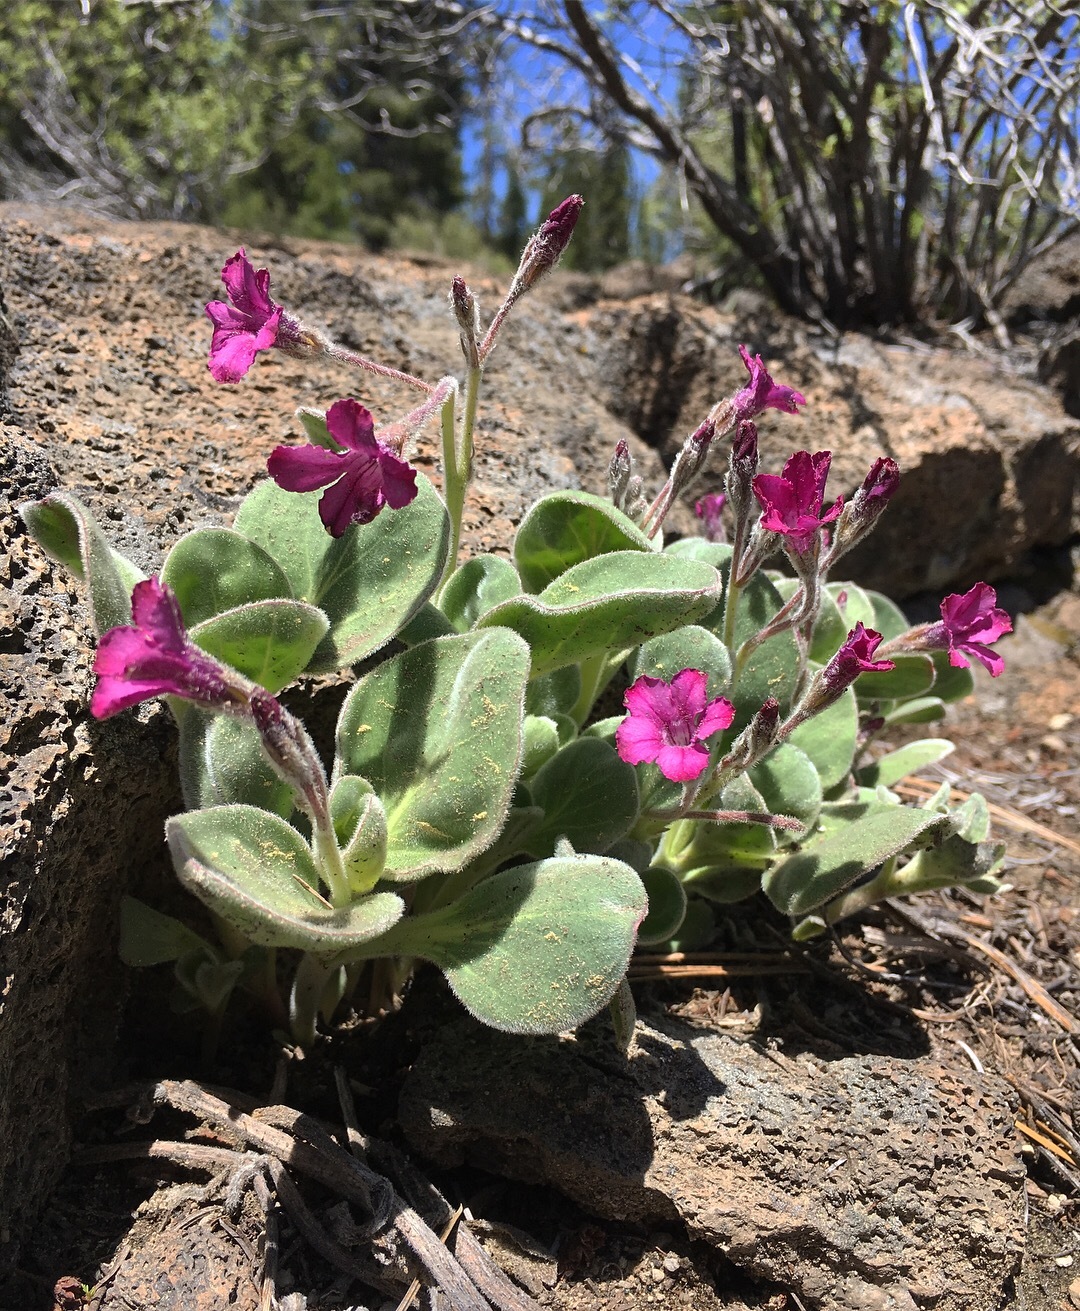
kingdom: Plantae
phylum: Tracheophyta
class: Magnoliopsida
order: Gentianales
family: Apocynaceae
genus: Cycladenia
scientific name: Cycladenia humilis
